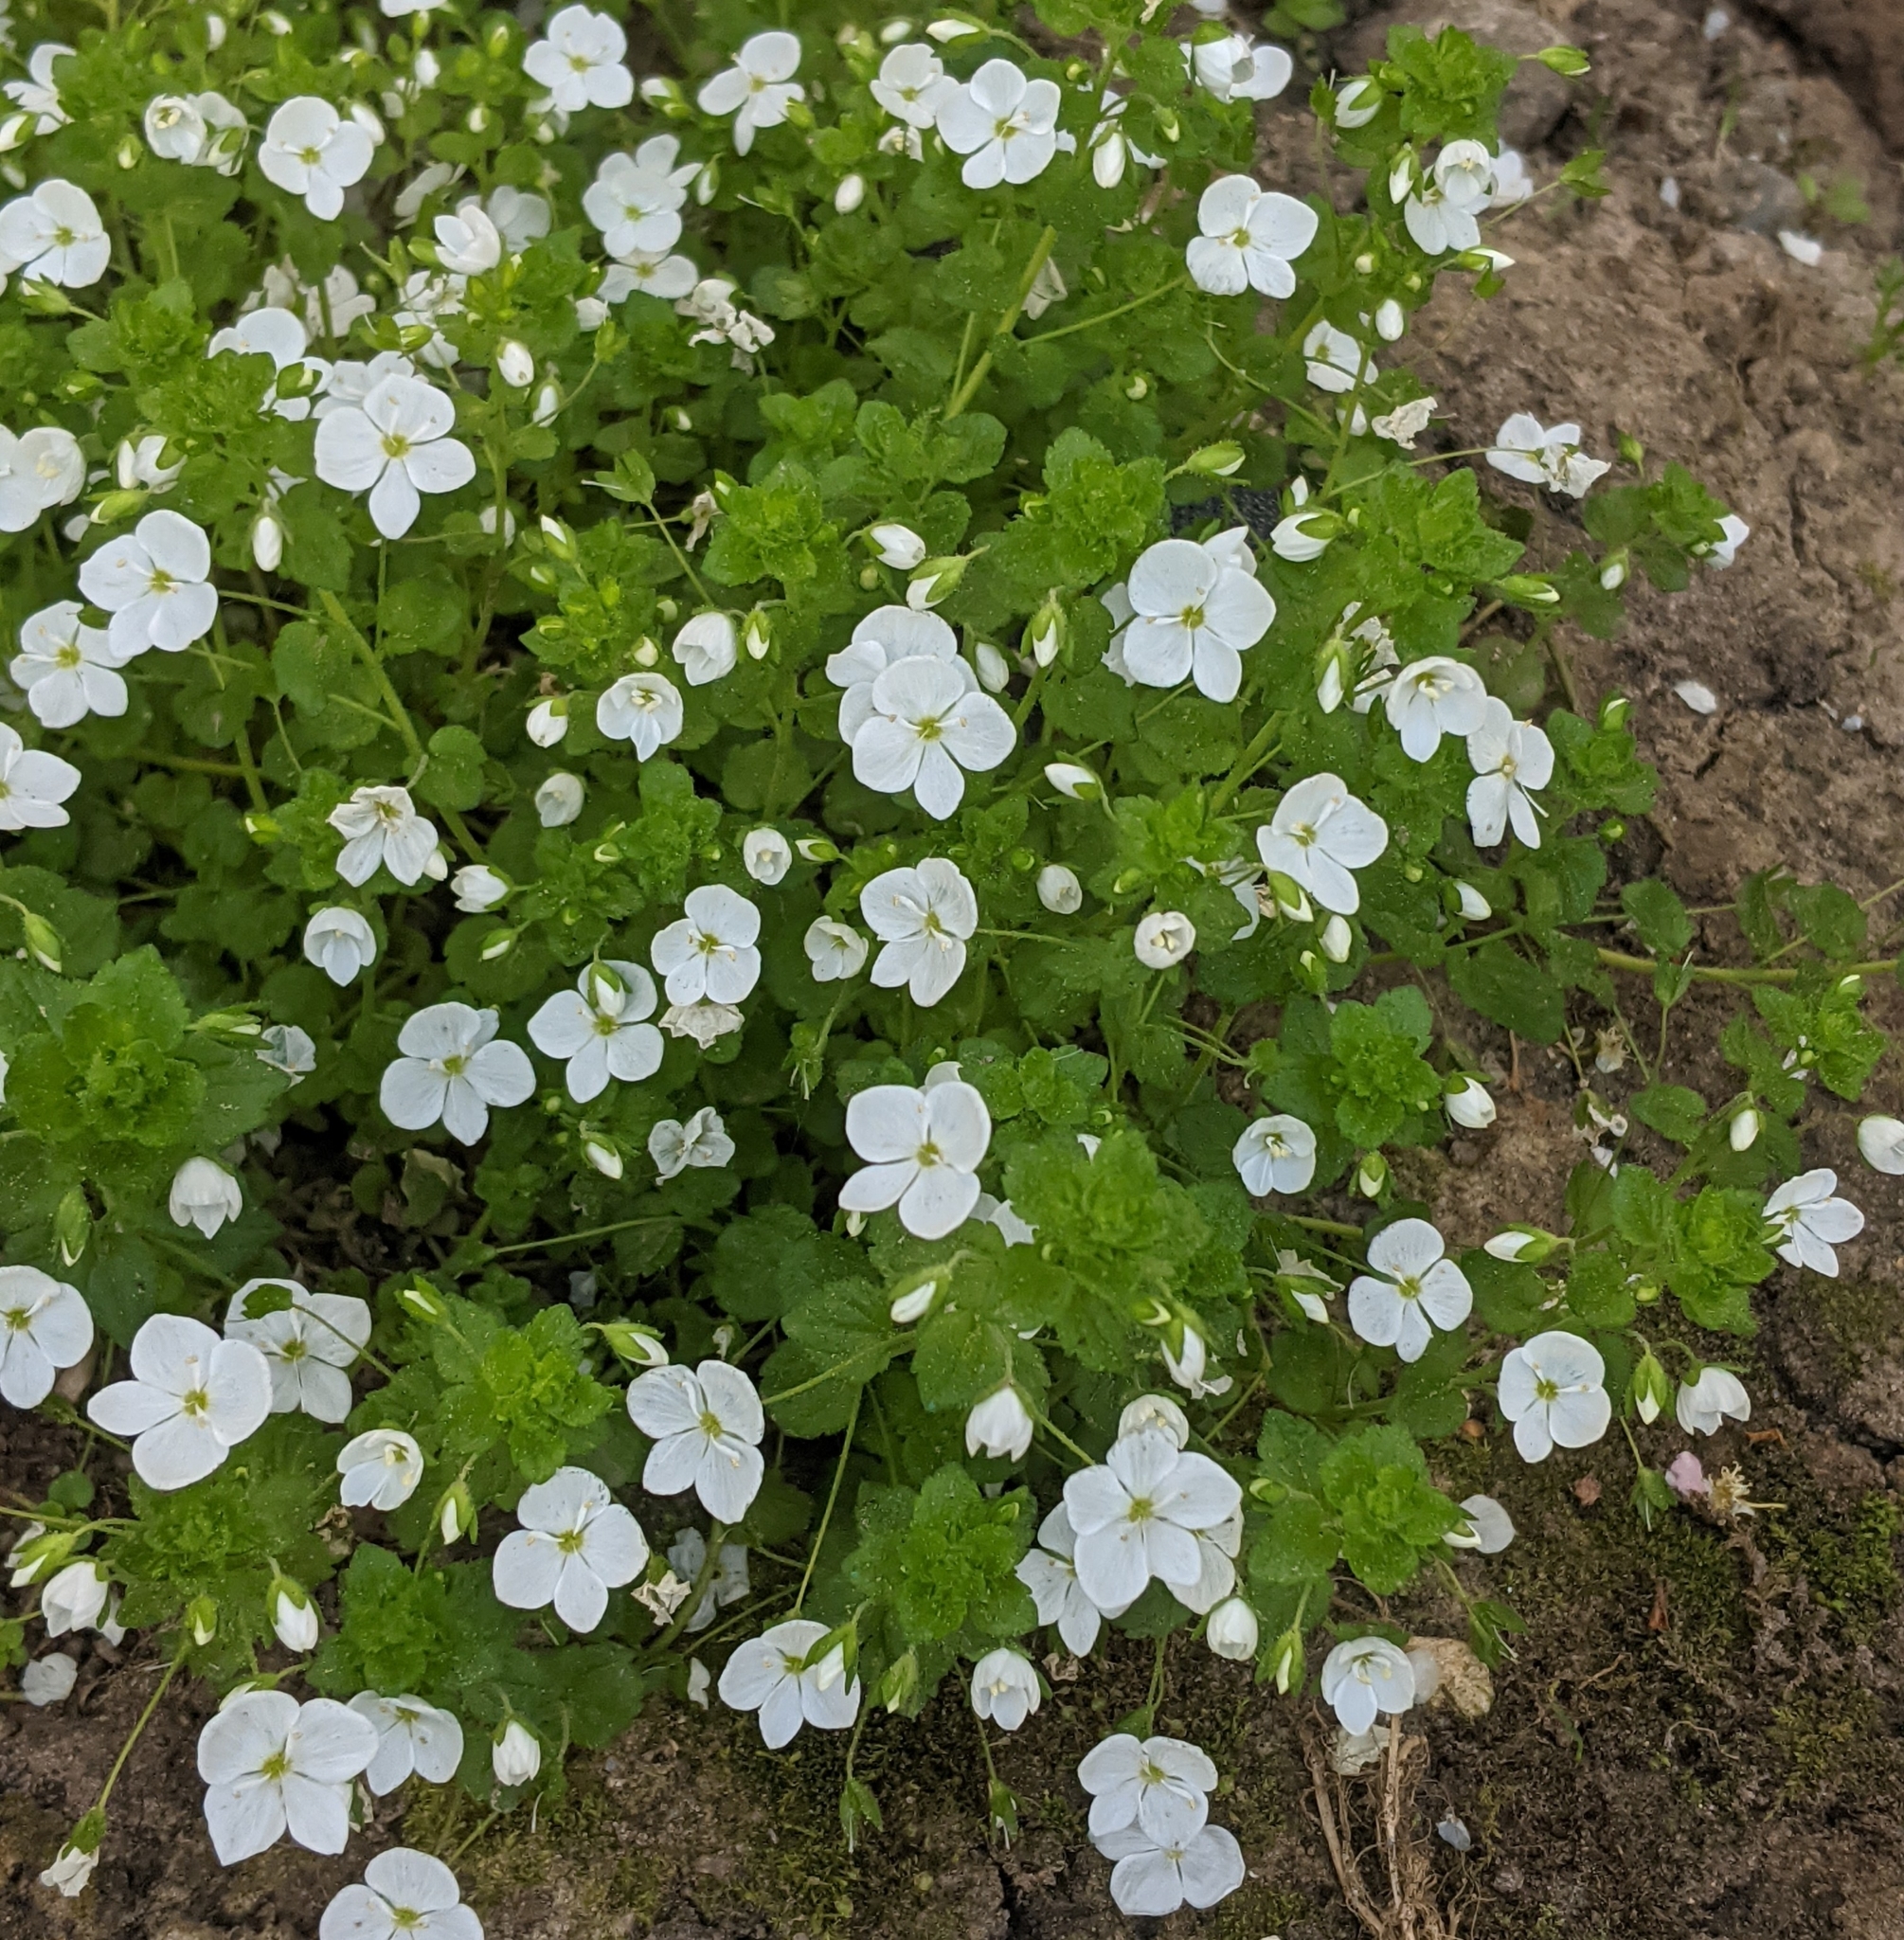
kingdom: Plantae
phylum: Tracheophyta
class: Magnoliopsida
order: Lamiales
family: Plantaginaceae
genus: Veronica
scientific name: Veronica filiformis
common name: Slender speedwell
